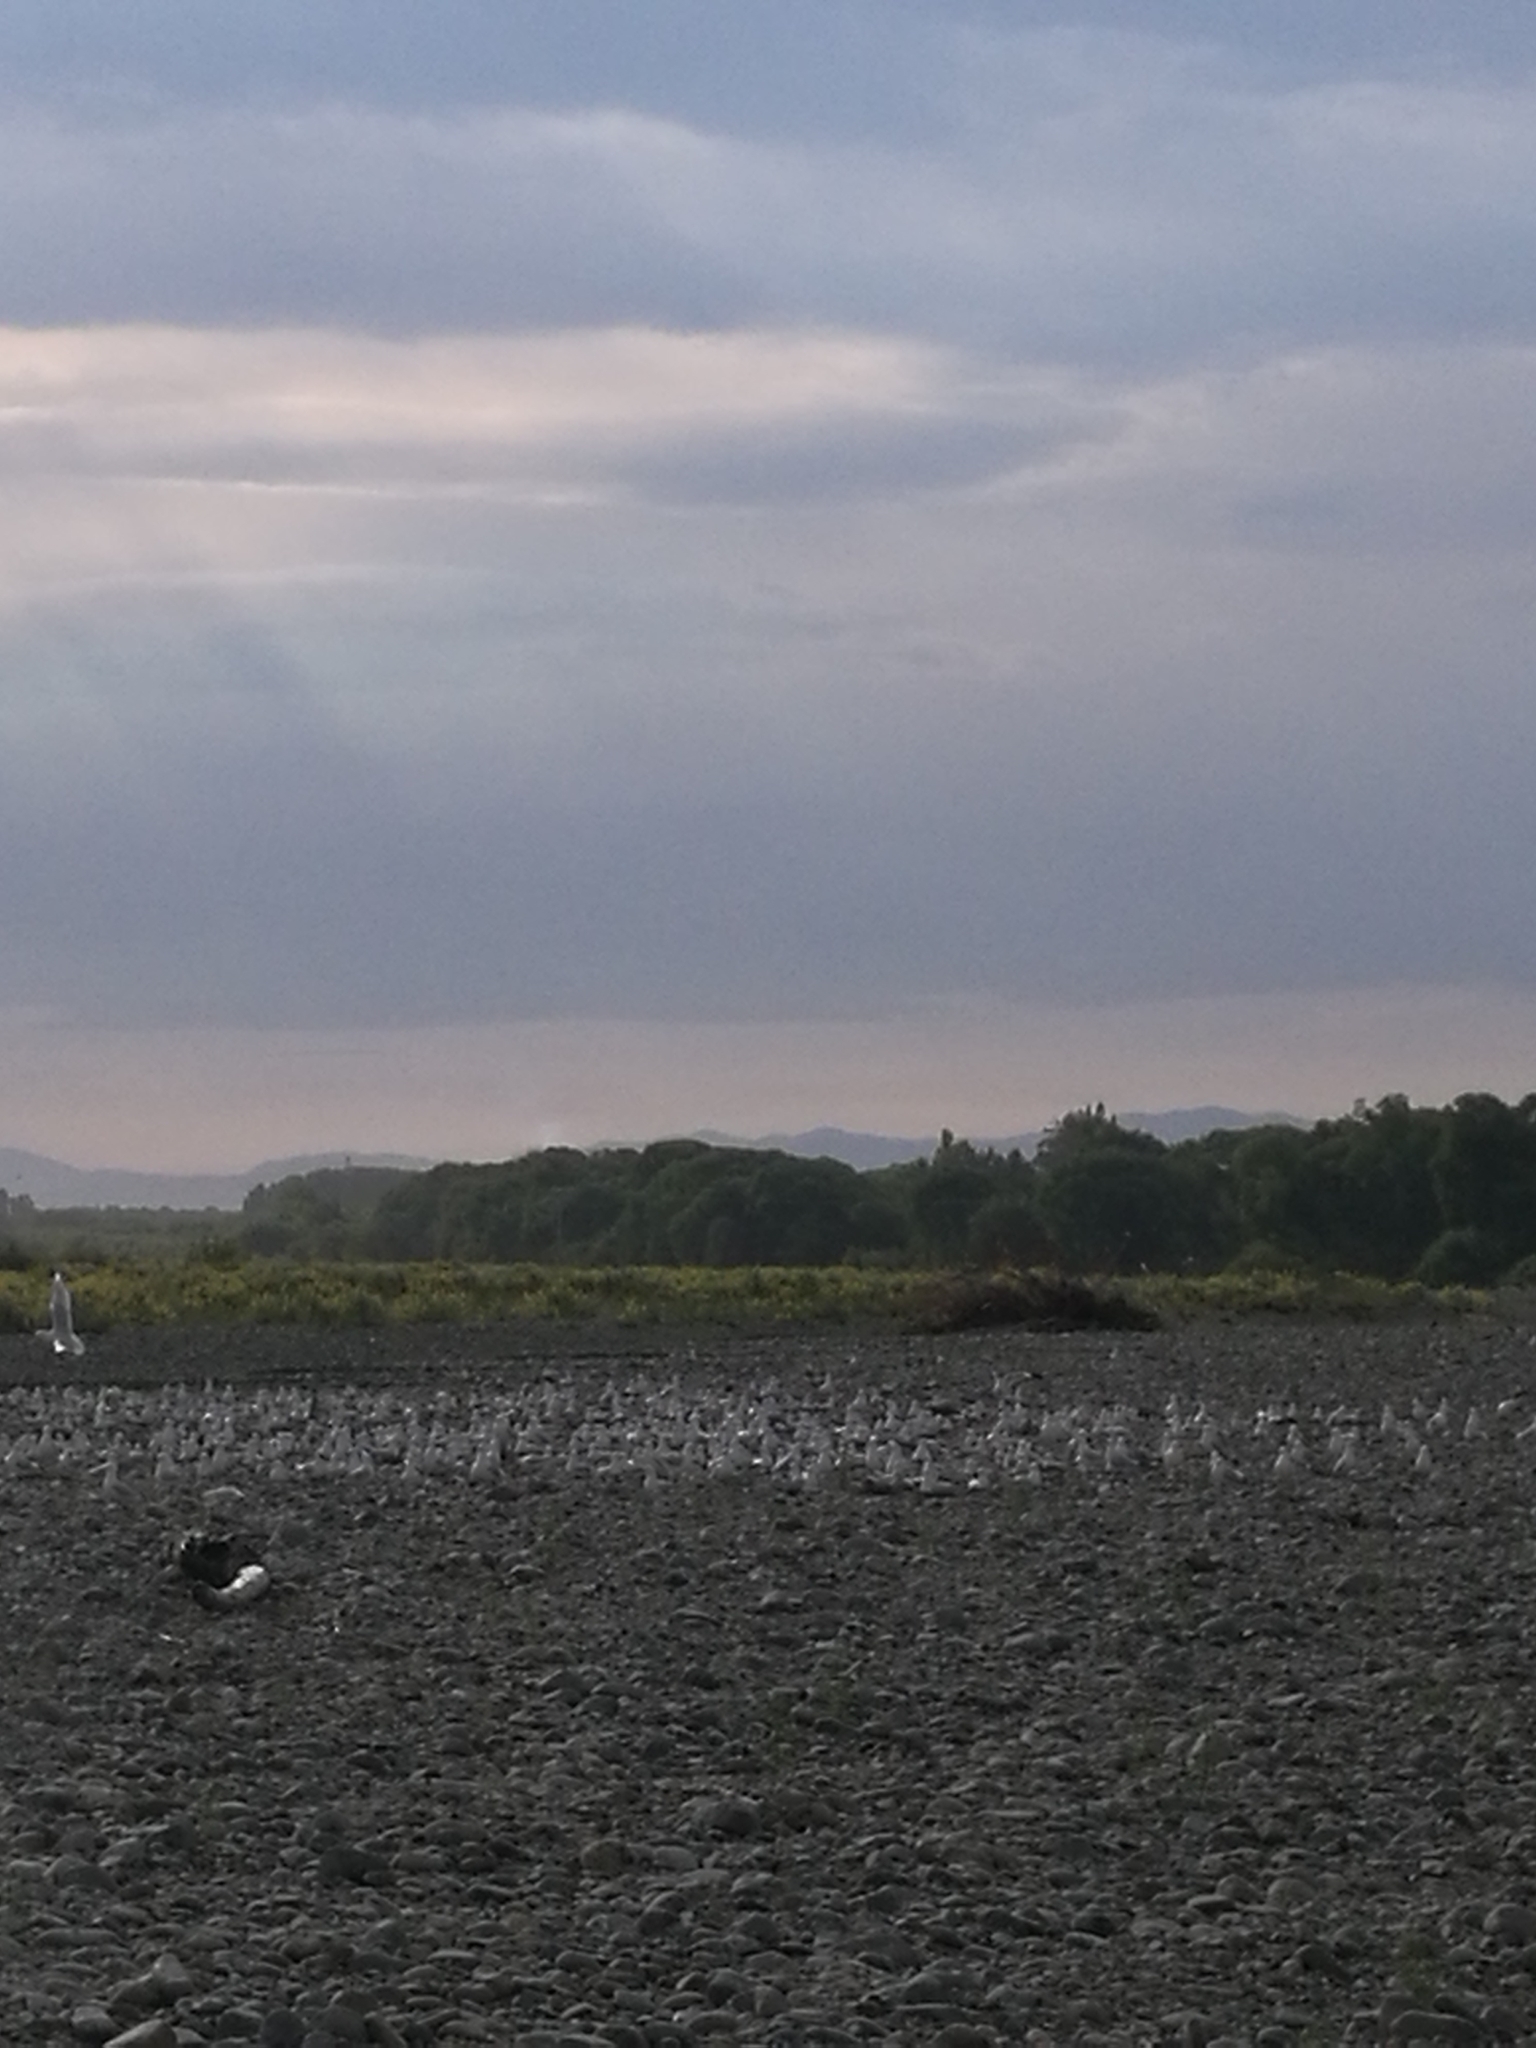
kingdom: Animalia
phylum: Chordata
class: Aves
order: Charadriiformes
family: Laridae
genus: Chroicocephalus
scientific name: Chroicocephalus bulleri
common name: Black-billed gull
